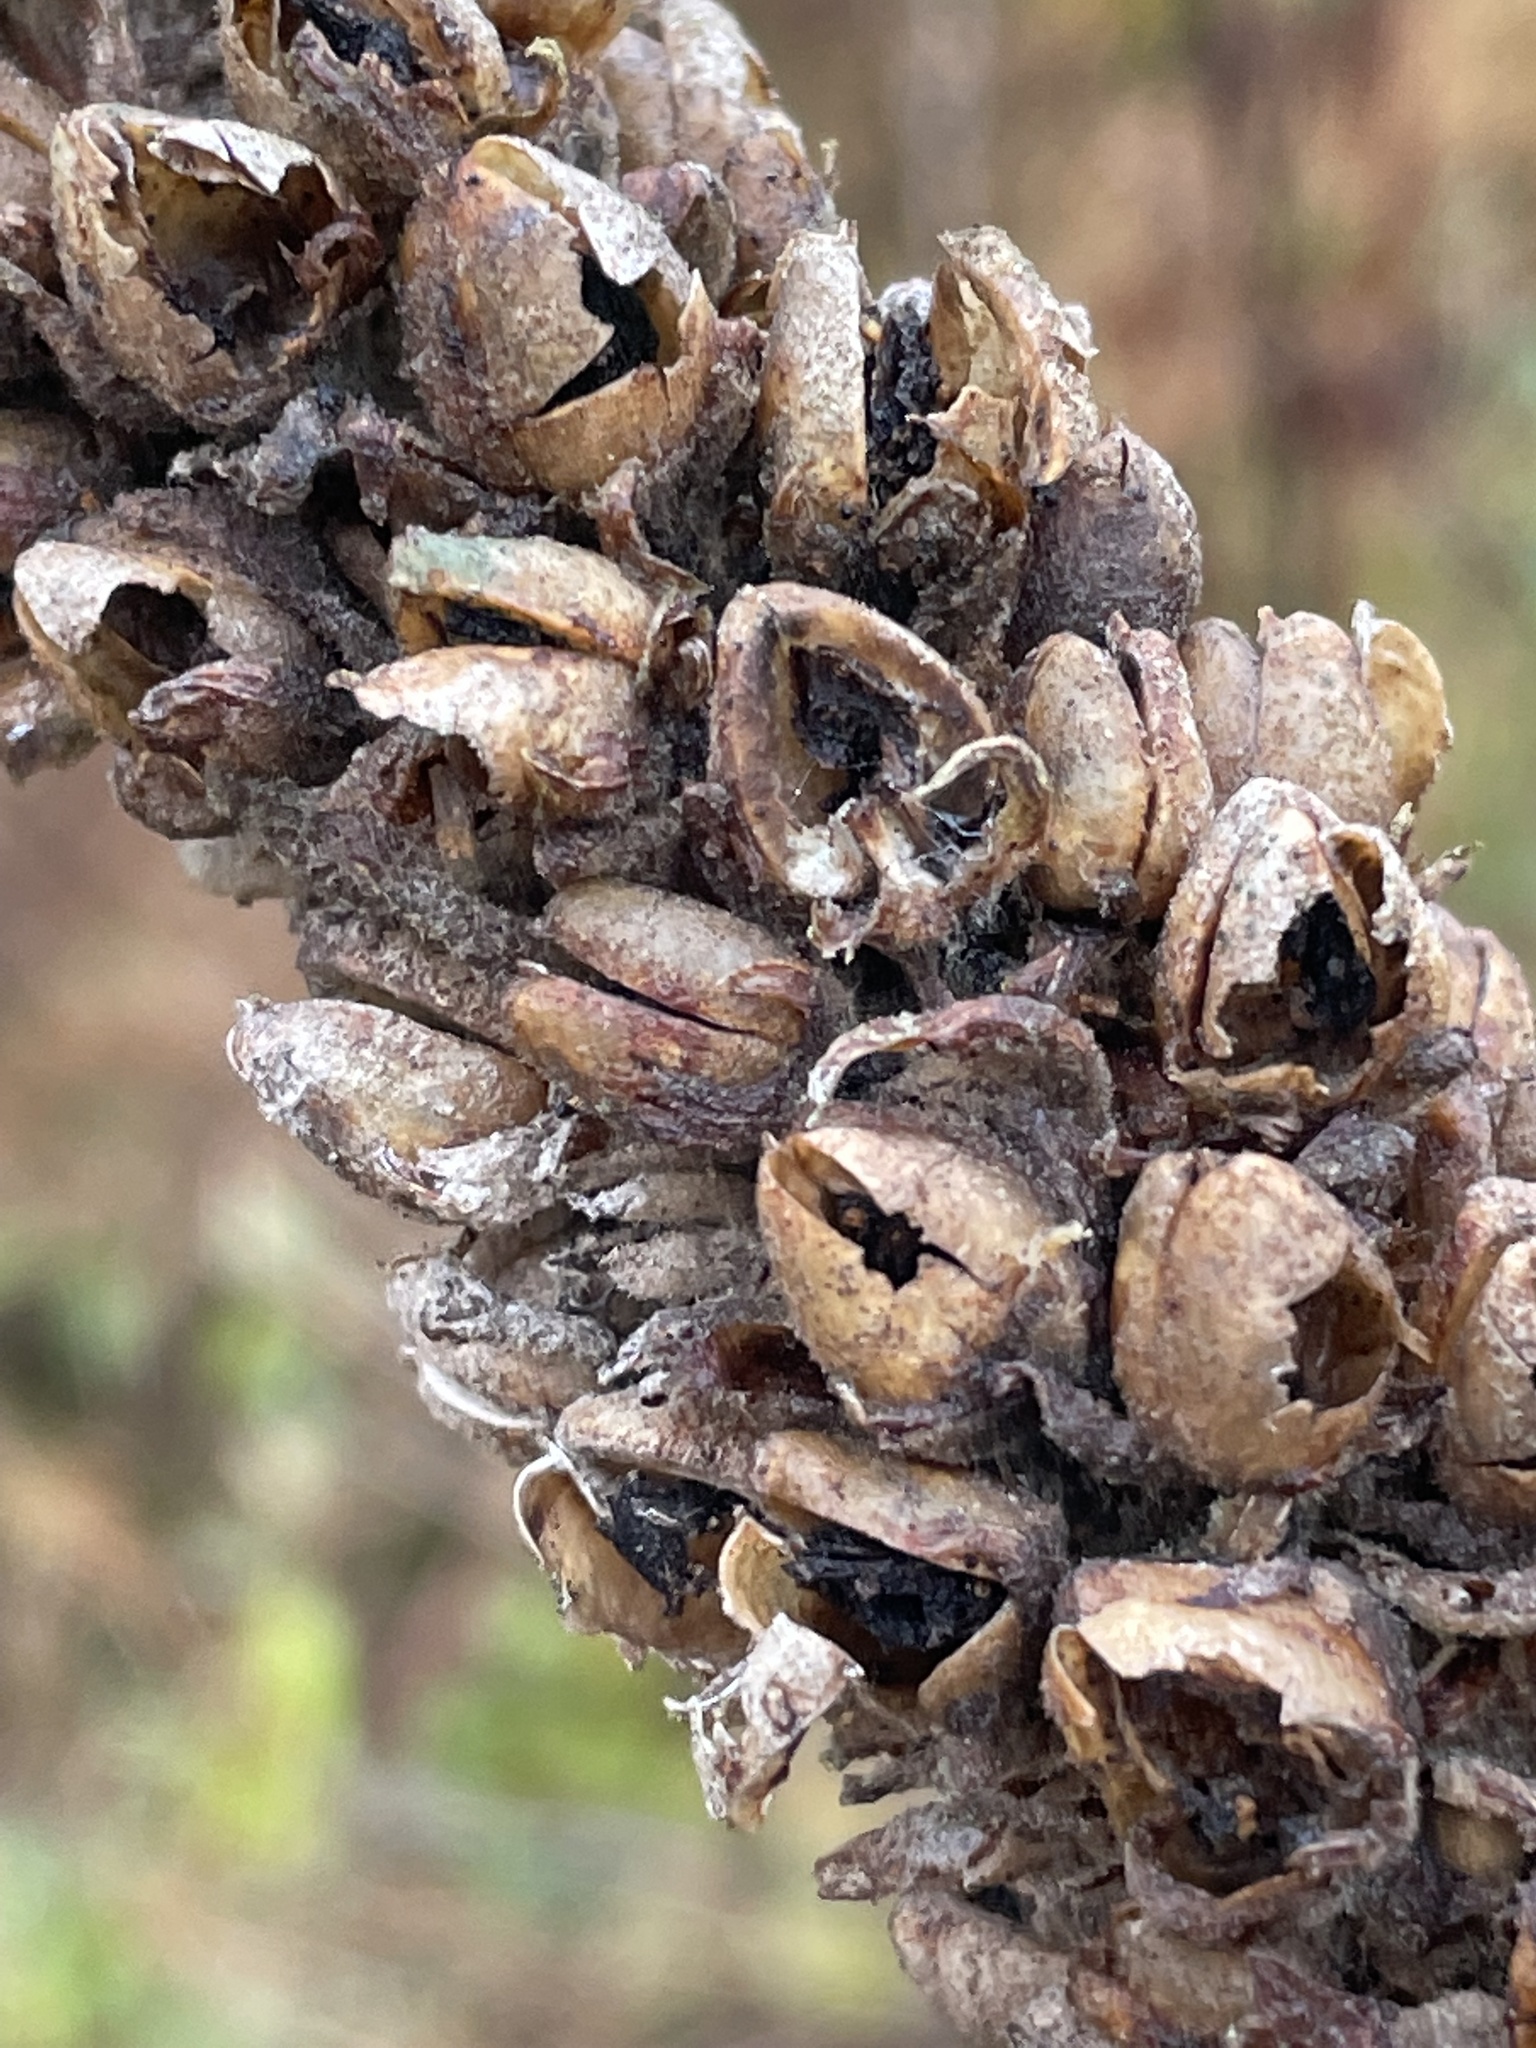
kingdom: Plantae
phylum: Tracheophyta
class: Magnoliopsida
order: Lamiales
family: Scrophulariaceae
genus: Verbascum
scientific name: Verbascum thapsus
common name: Common mullein
